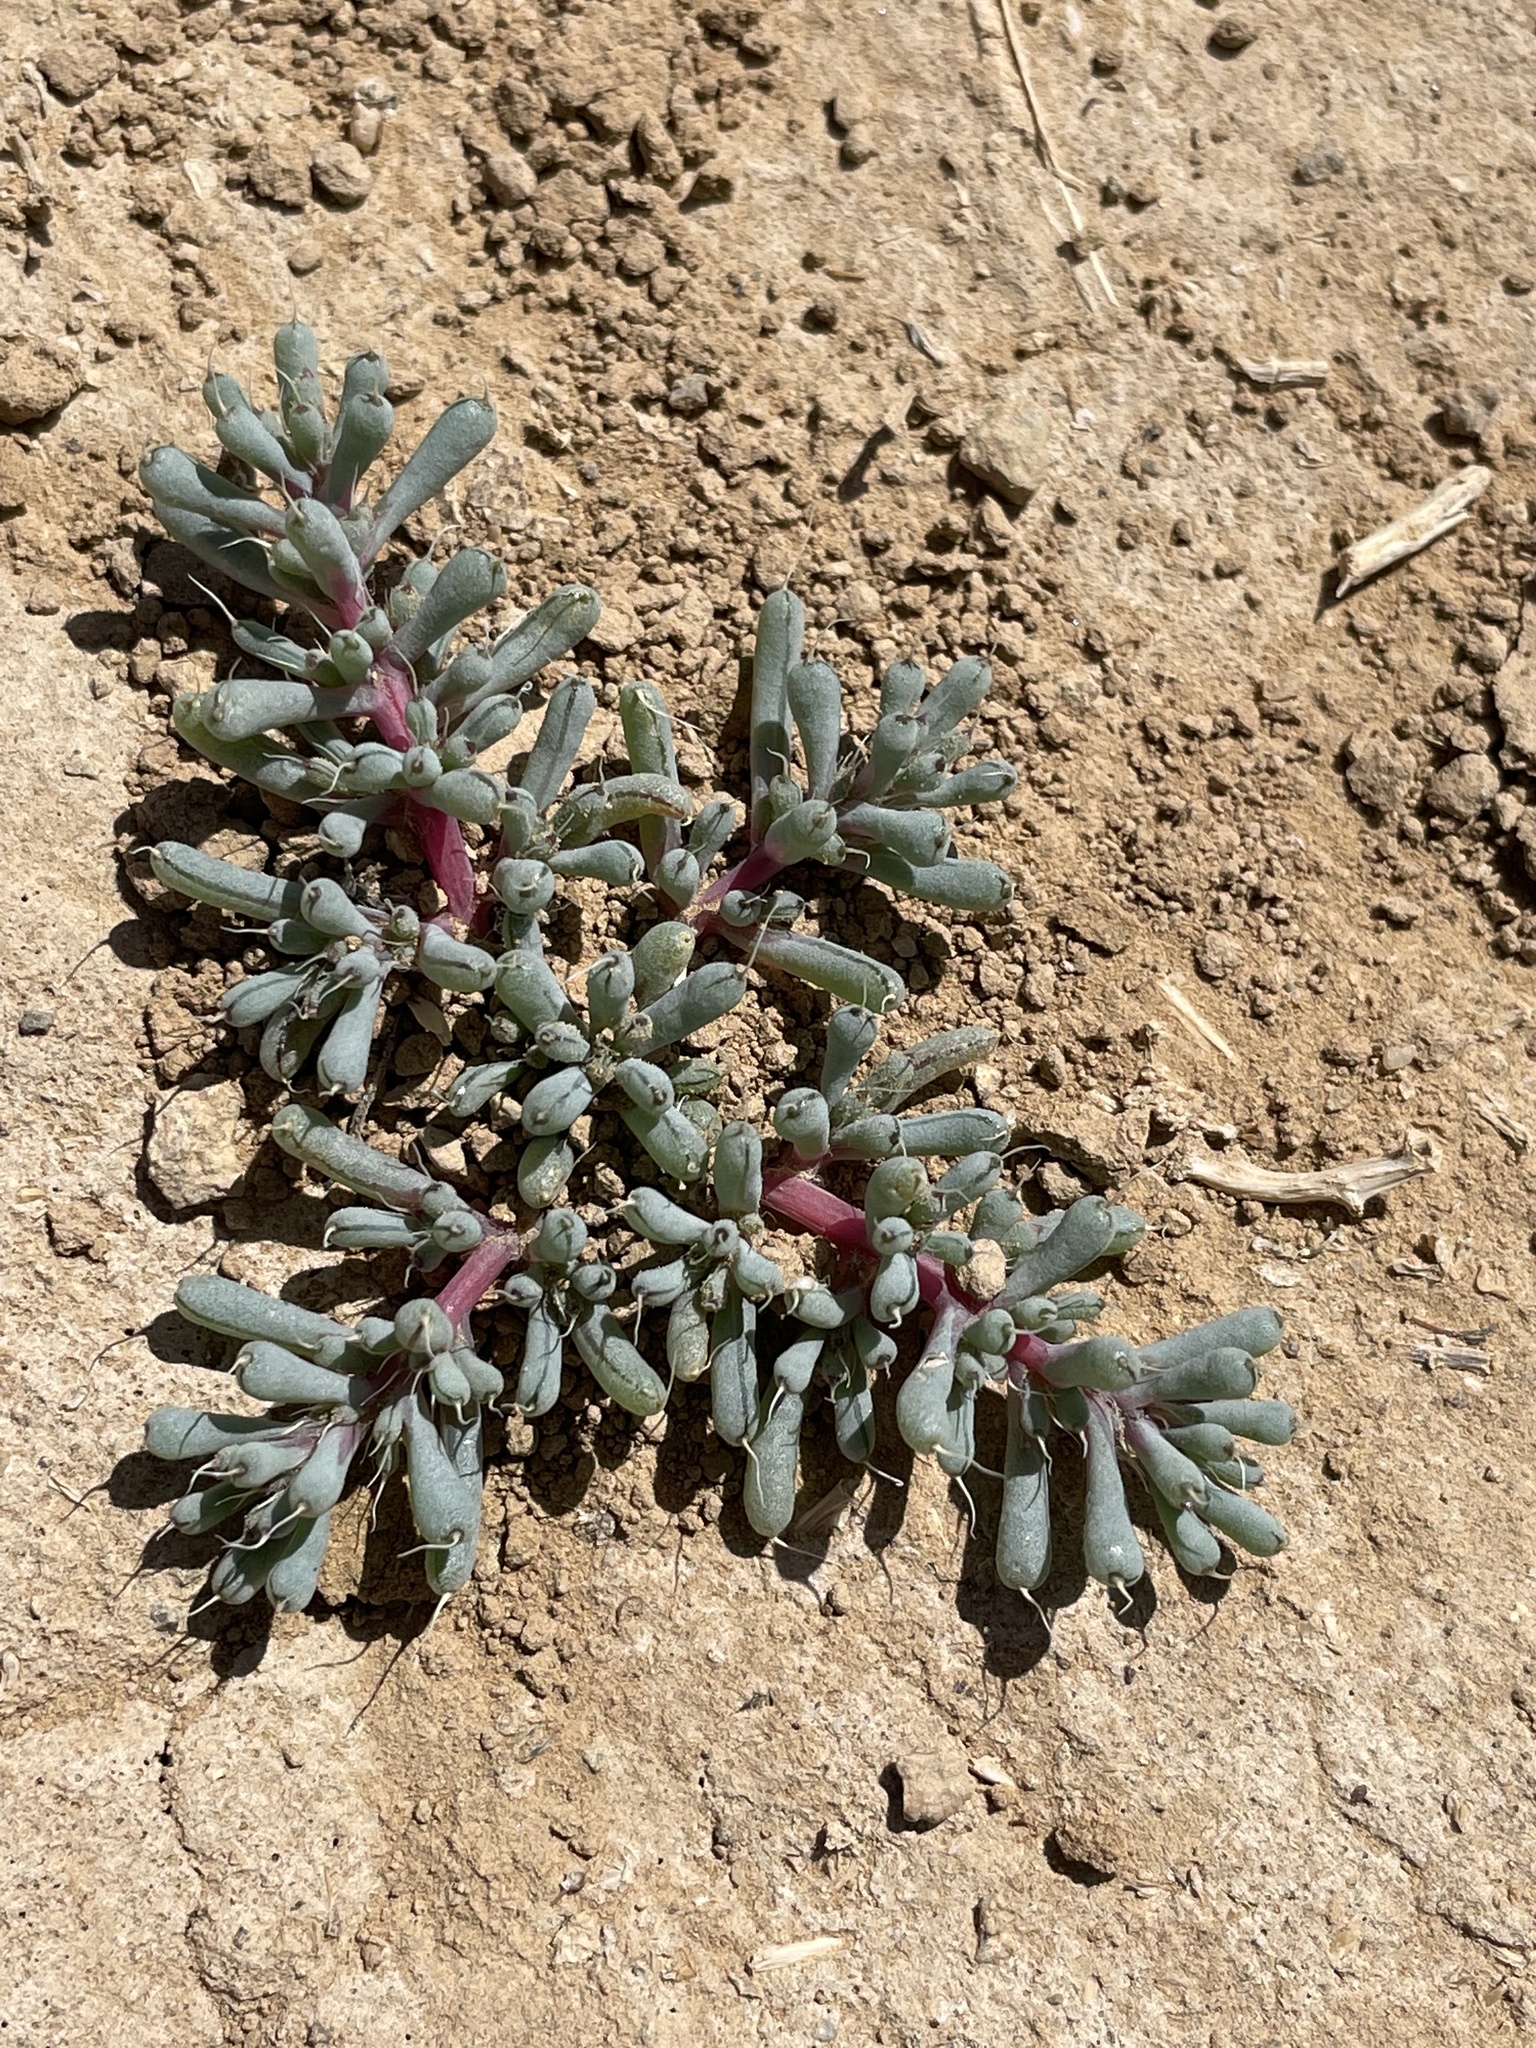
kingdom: Plantae
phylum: Tracheophyta
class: Magnoliopsida
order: Caryophyllales
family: Amaranthaceae
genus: Halogeton
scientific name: Halogeton glomeratus
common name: Saltlover
